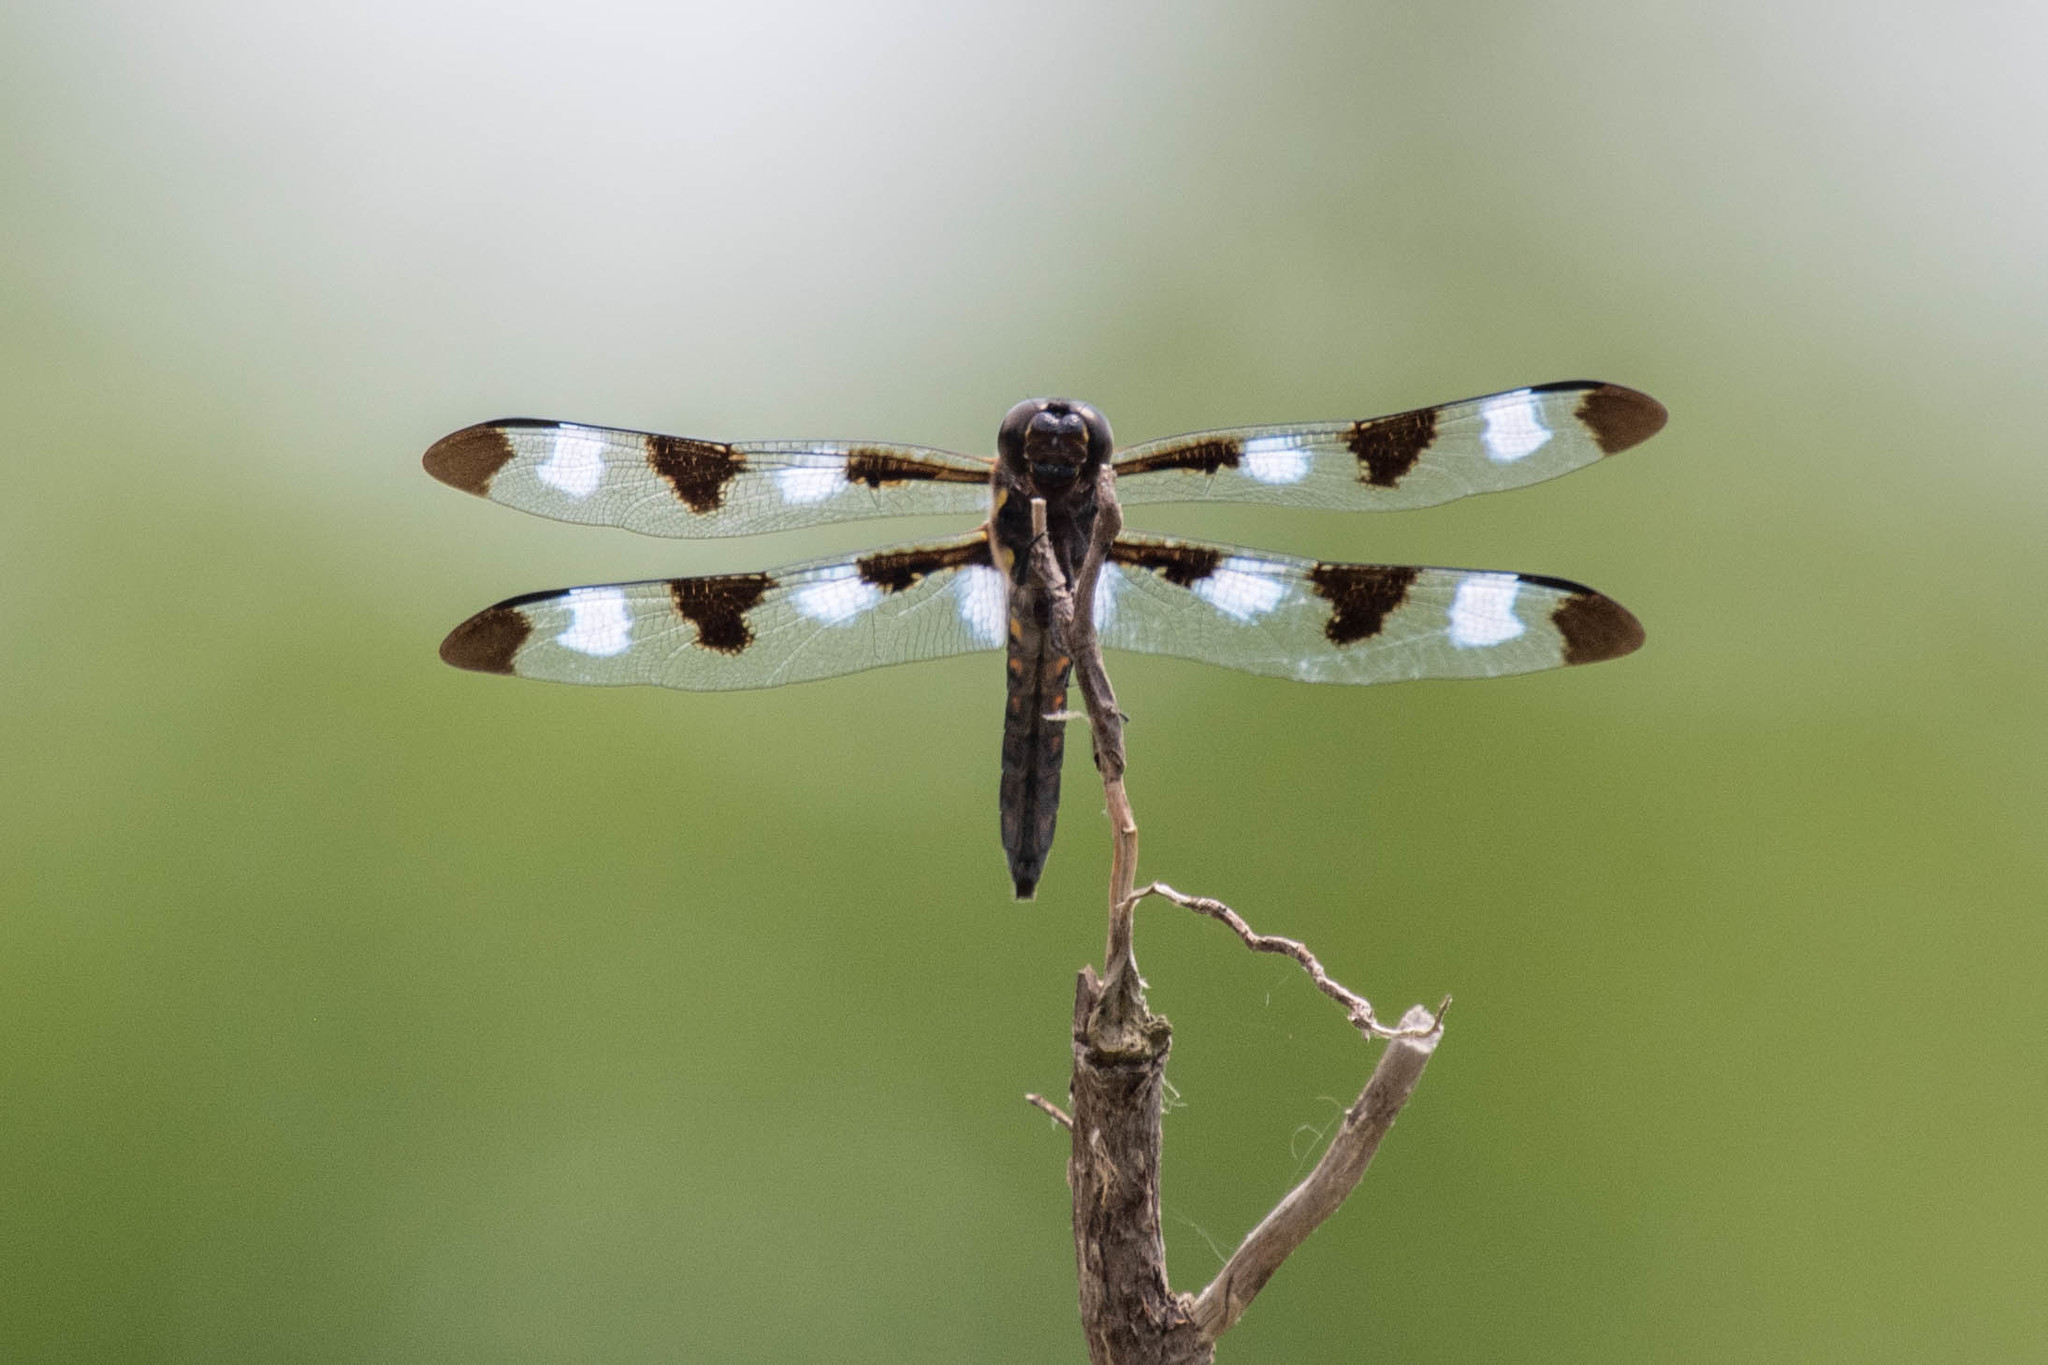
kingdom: Animalia
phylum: Arthropoda
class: Insecta
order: Odonata
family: Libellulidae
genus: Libellula
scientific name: Libellula pulchella
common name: Twelve-spotted skimmer
